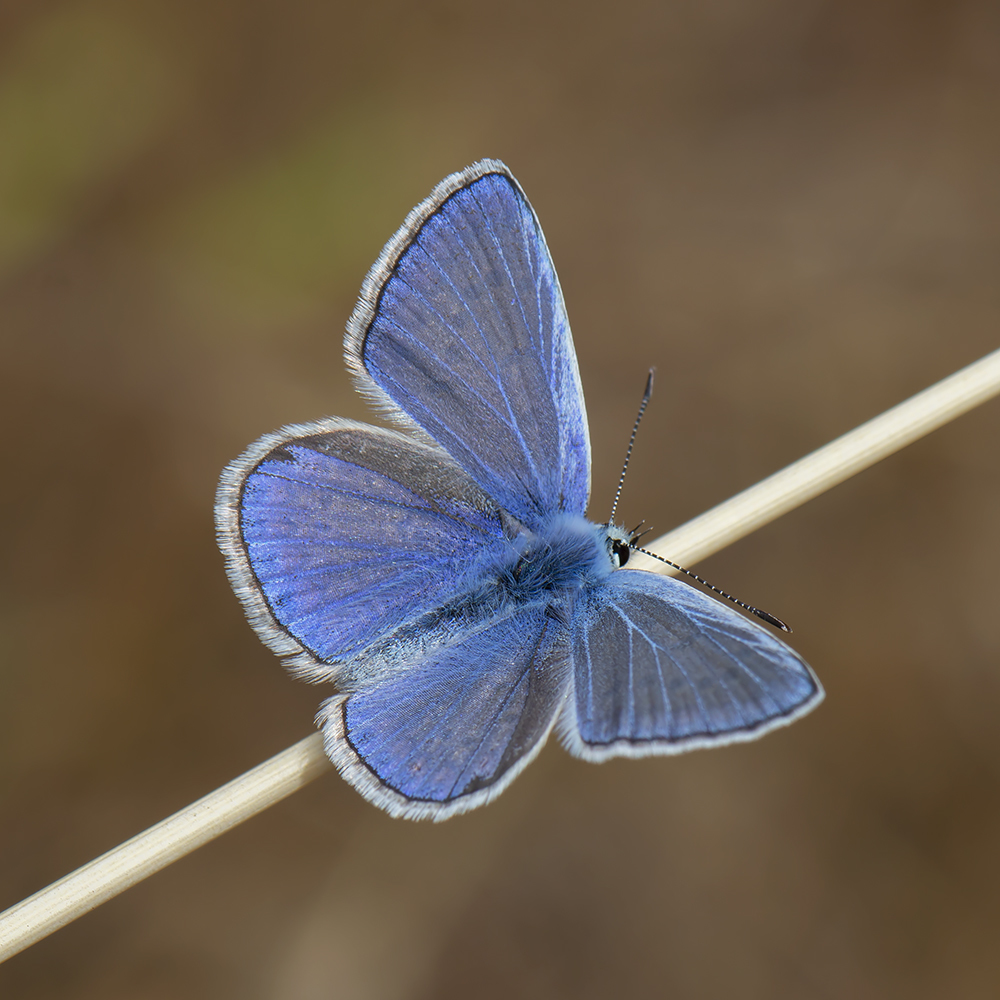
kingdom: Animalia
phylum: Arthropoda
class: Insecta
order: Lepidoptera
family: Lycaenidae
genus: Polyommatus
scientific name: Polyommatus icarus
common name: Common blue
